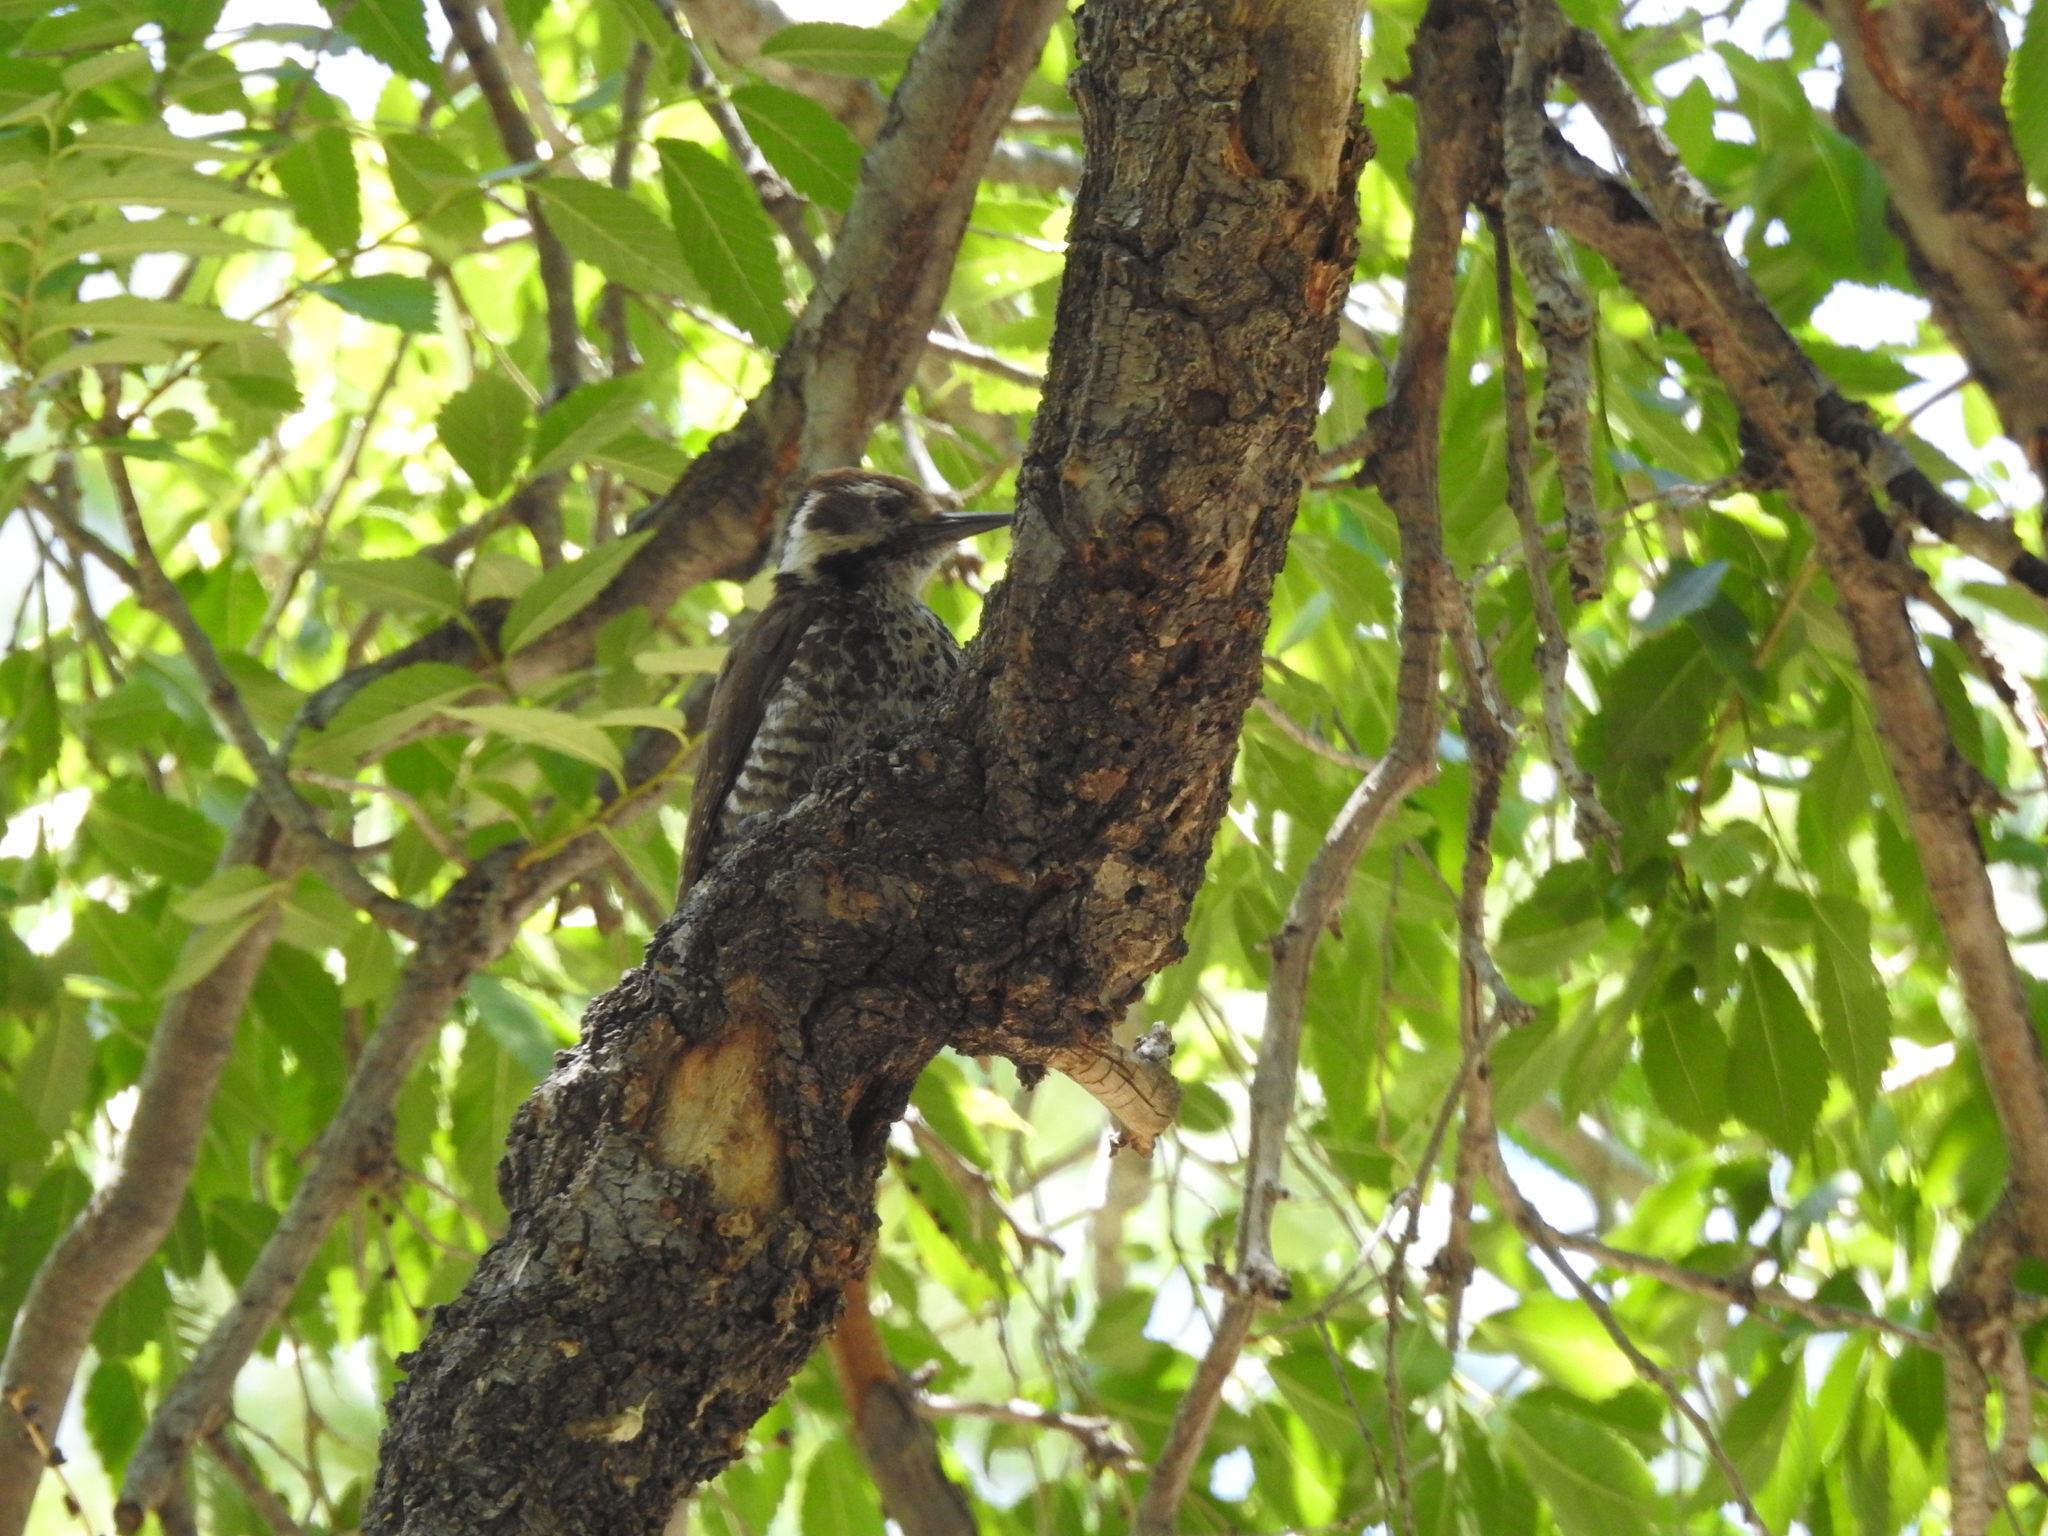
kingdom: Animalia
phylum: Chordata
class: Aves
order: Piciformes
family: Picidae
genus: Leuconotopicus
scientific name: Leuconotopicus arizonae
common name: Arizona woodpecker
